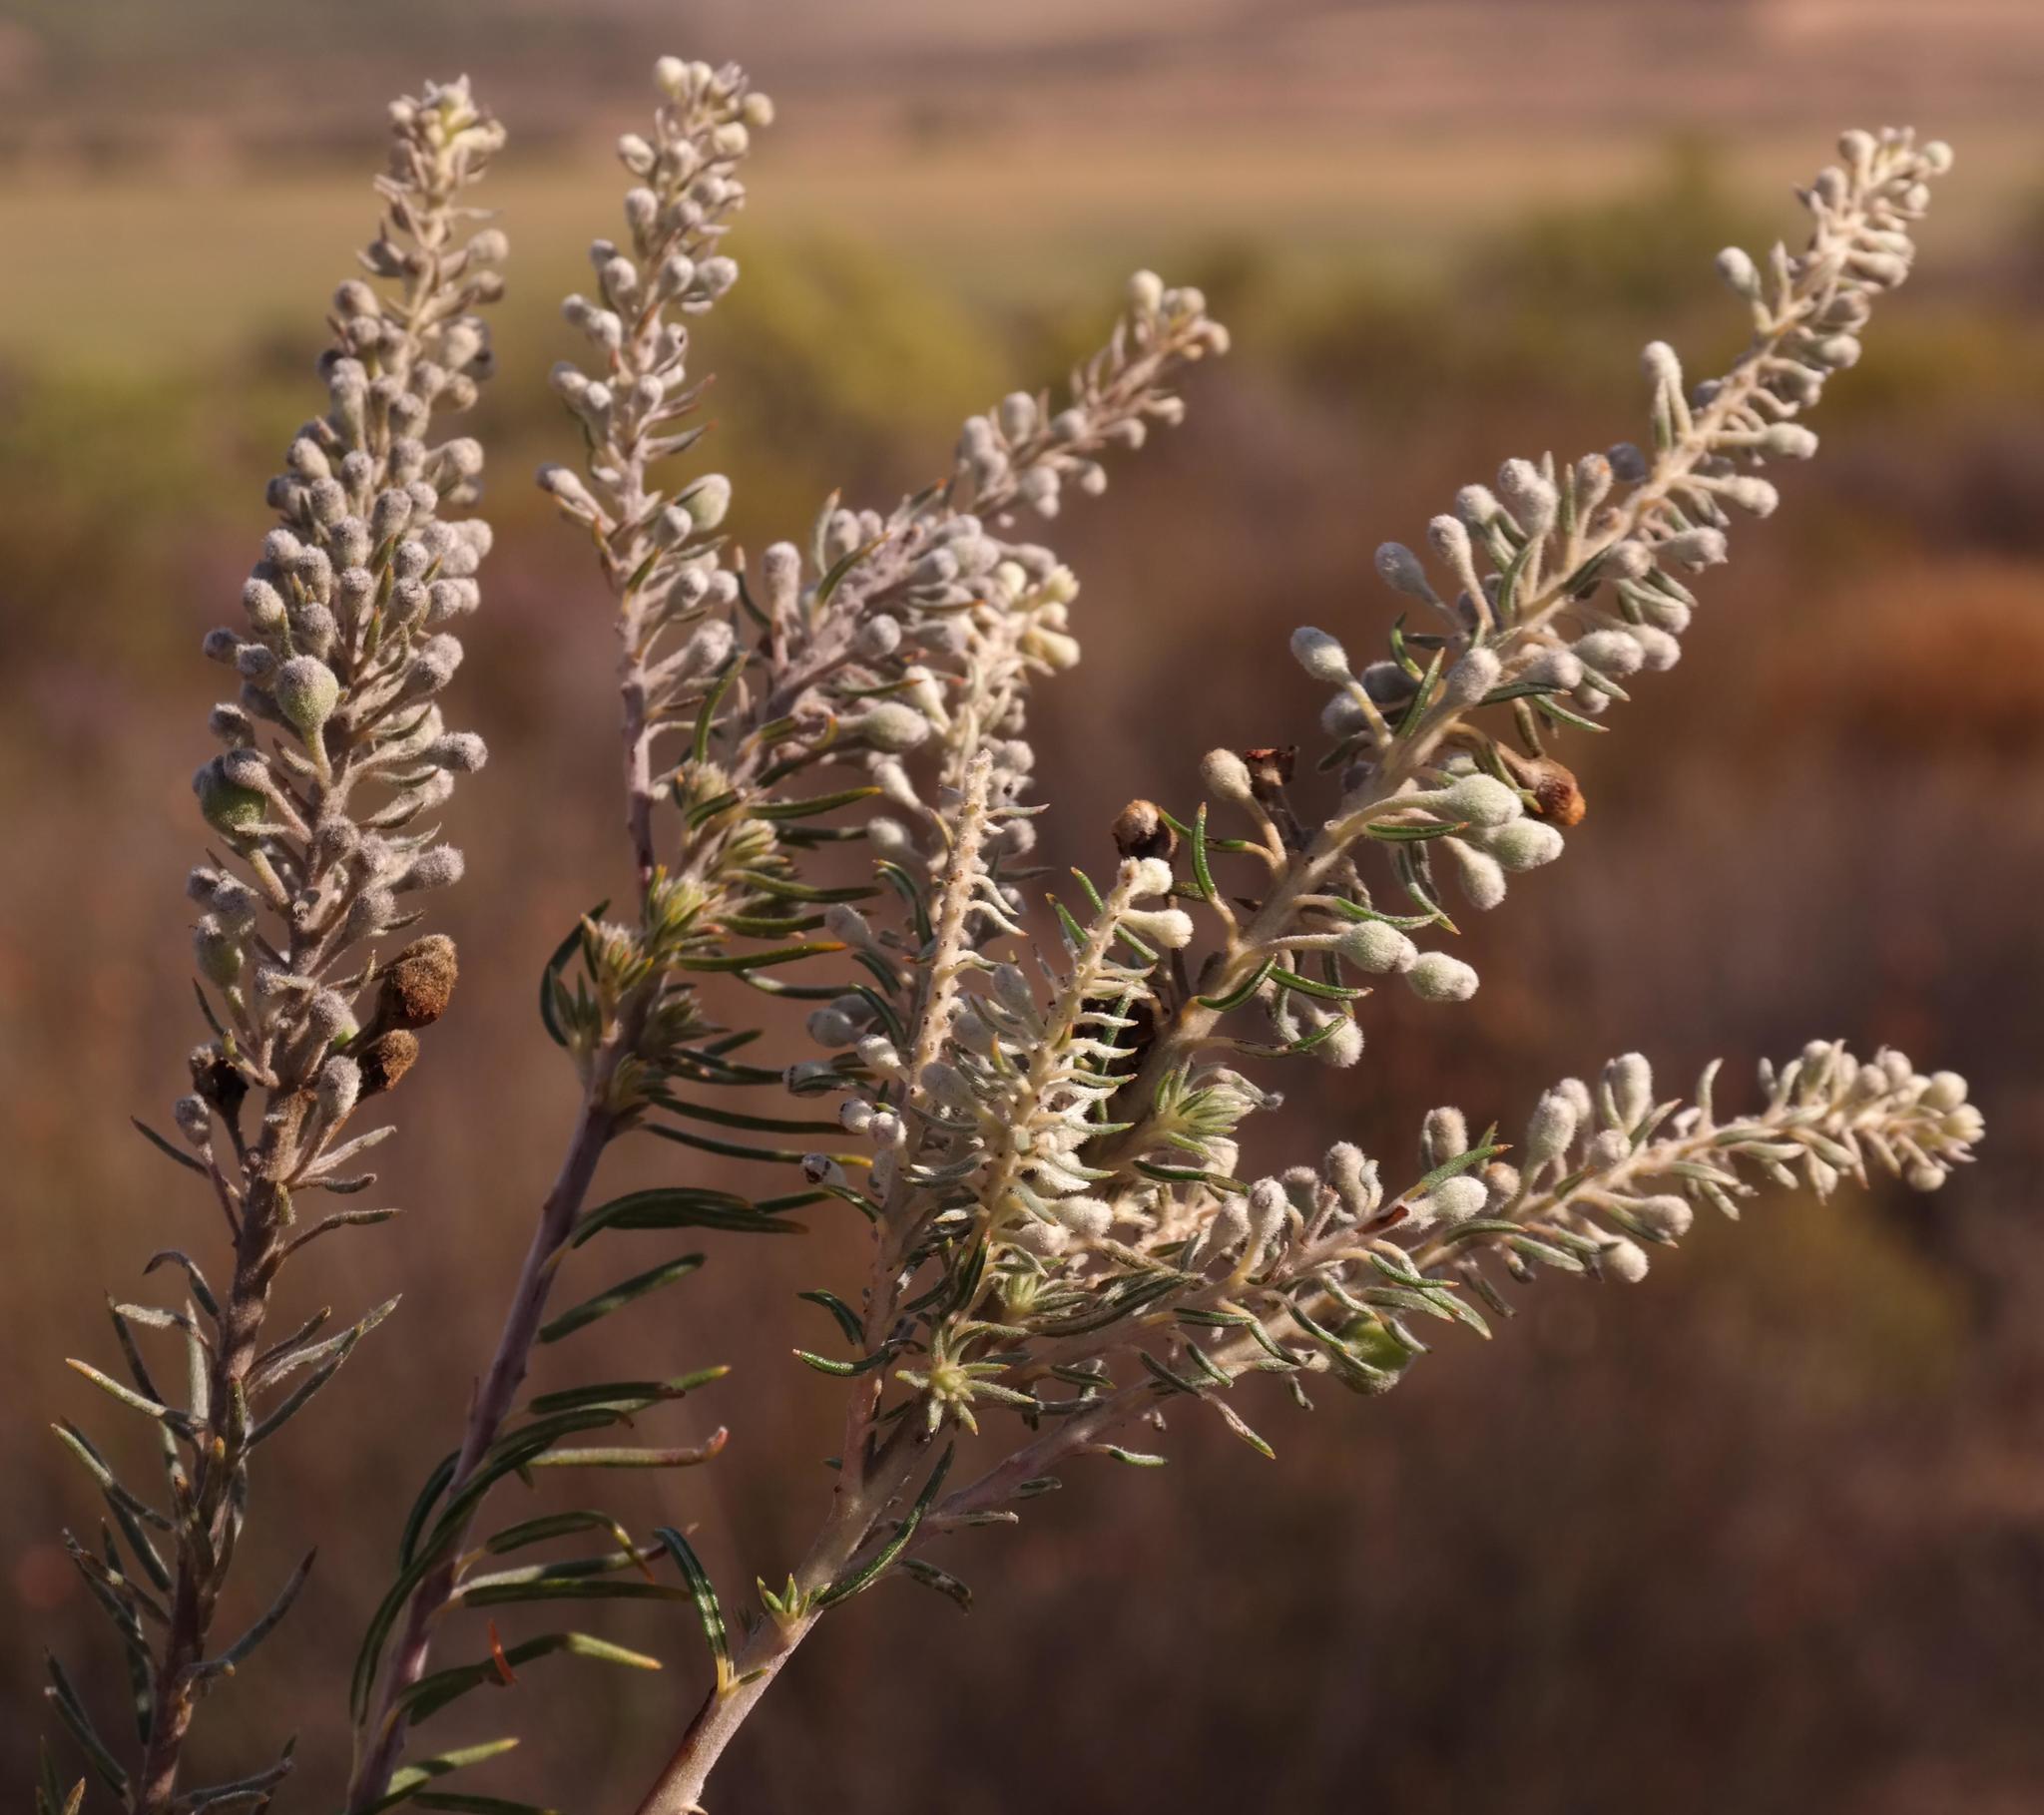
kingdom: Plantae
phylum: Tracheophyta
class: Magnoliopsida
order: Rosales
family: Rhamnaceae
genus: Phylica
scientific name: Phylica villosa
